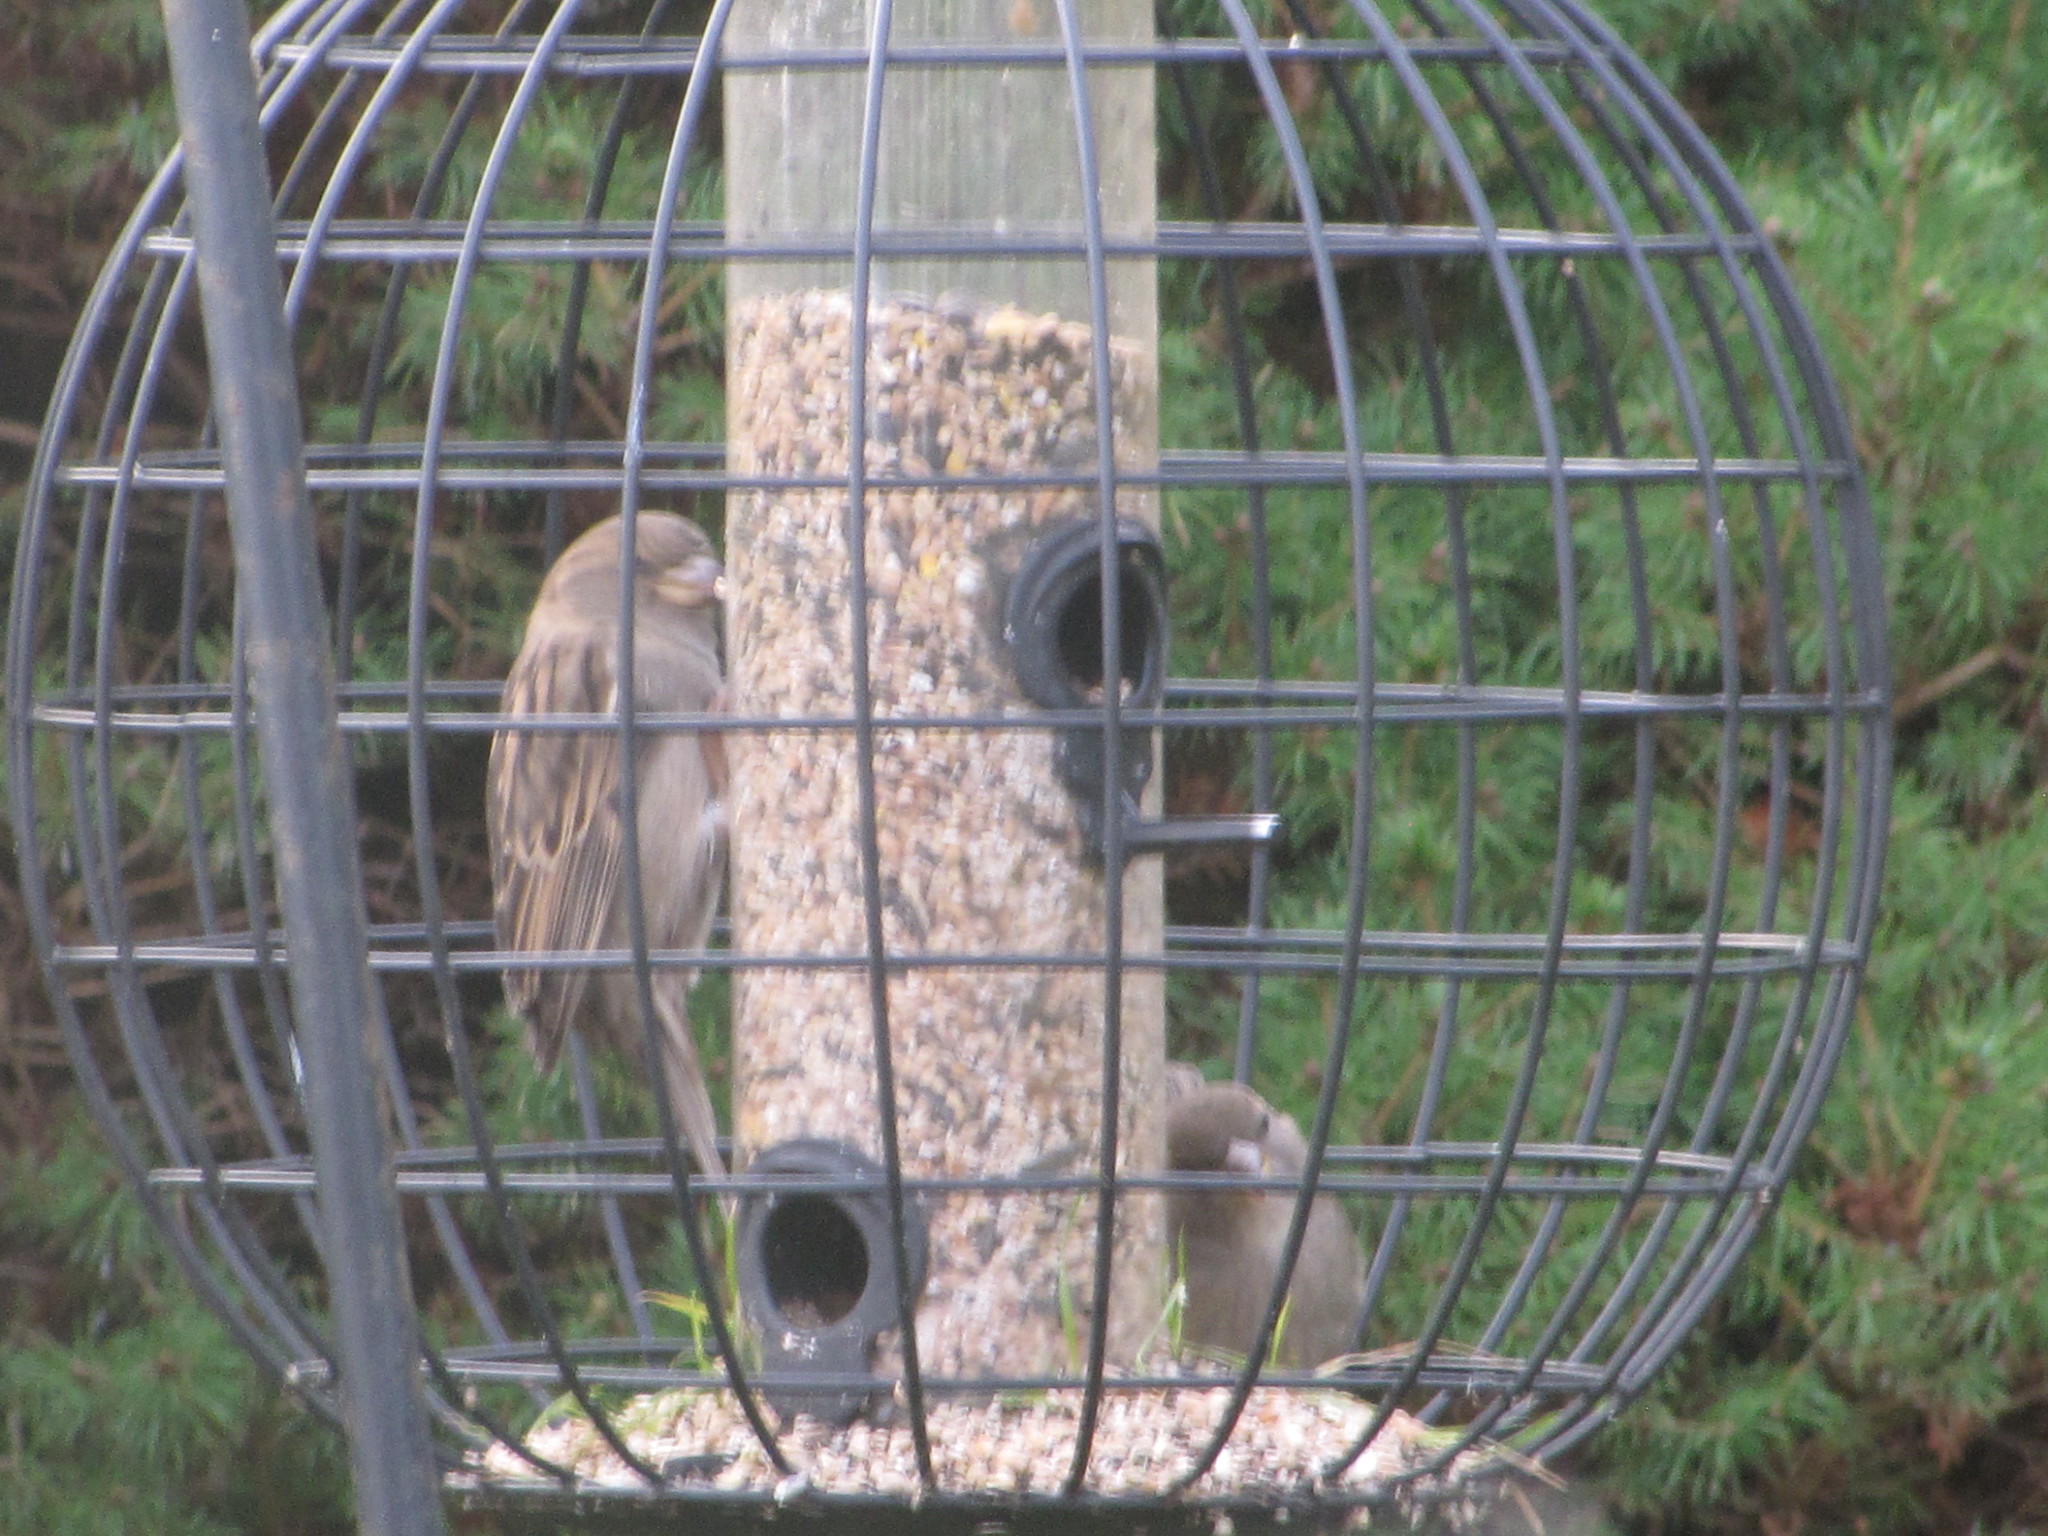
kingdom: Animalia
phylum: Chordata
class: Aves
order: Passeriformes
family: Passeridae
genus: Passer
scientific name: Passer domesticus
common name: House sparrow
